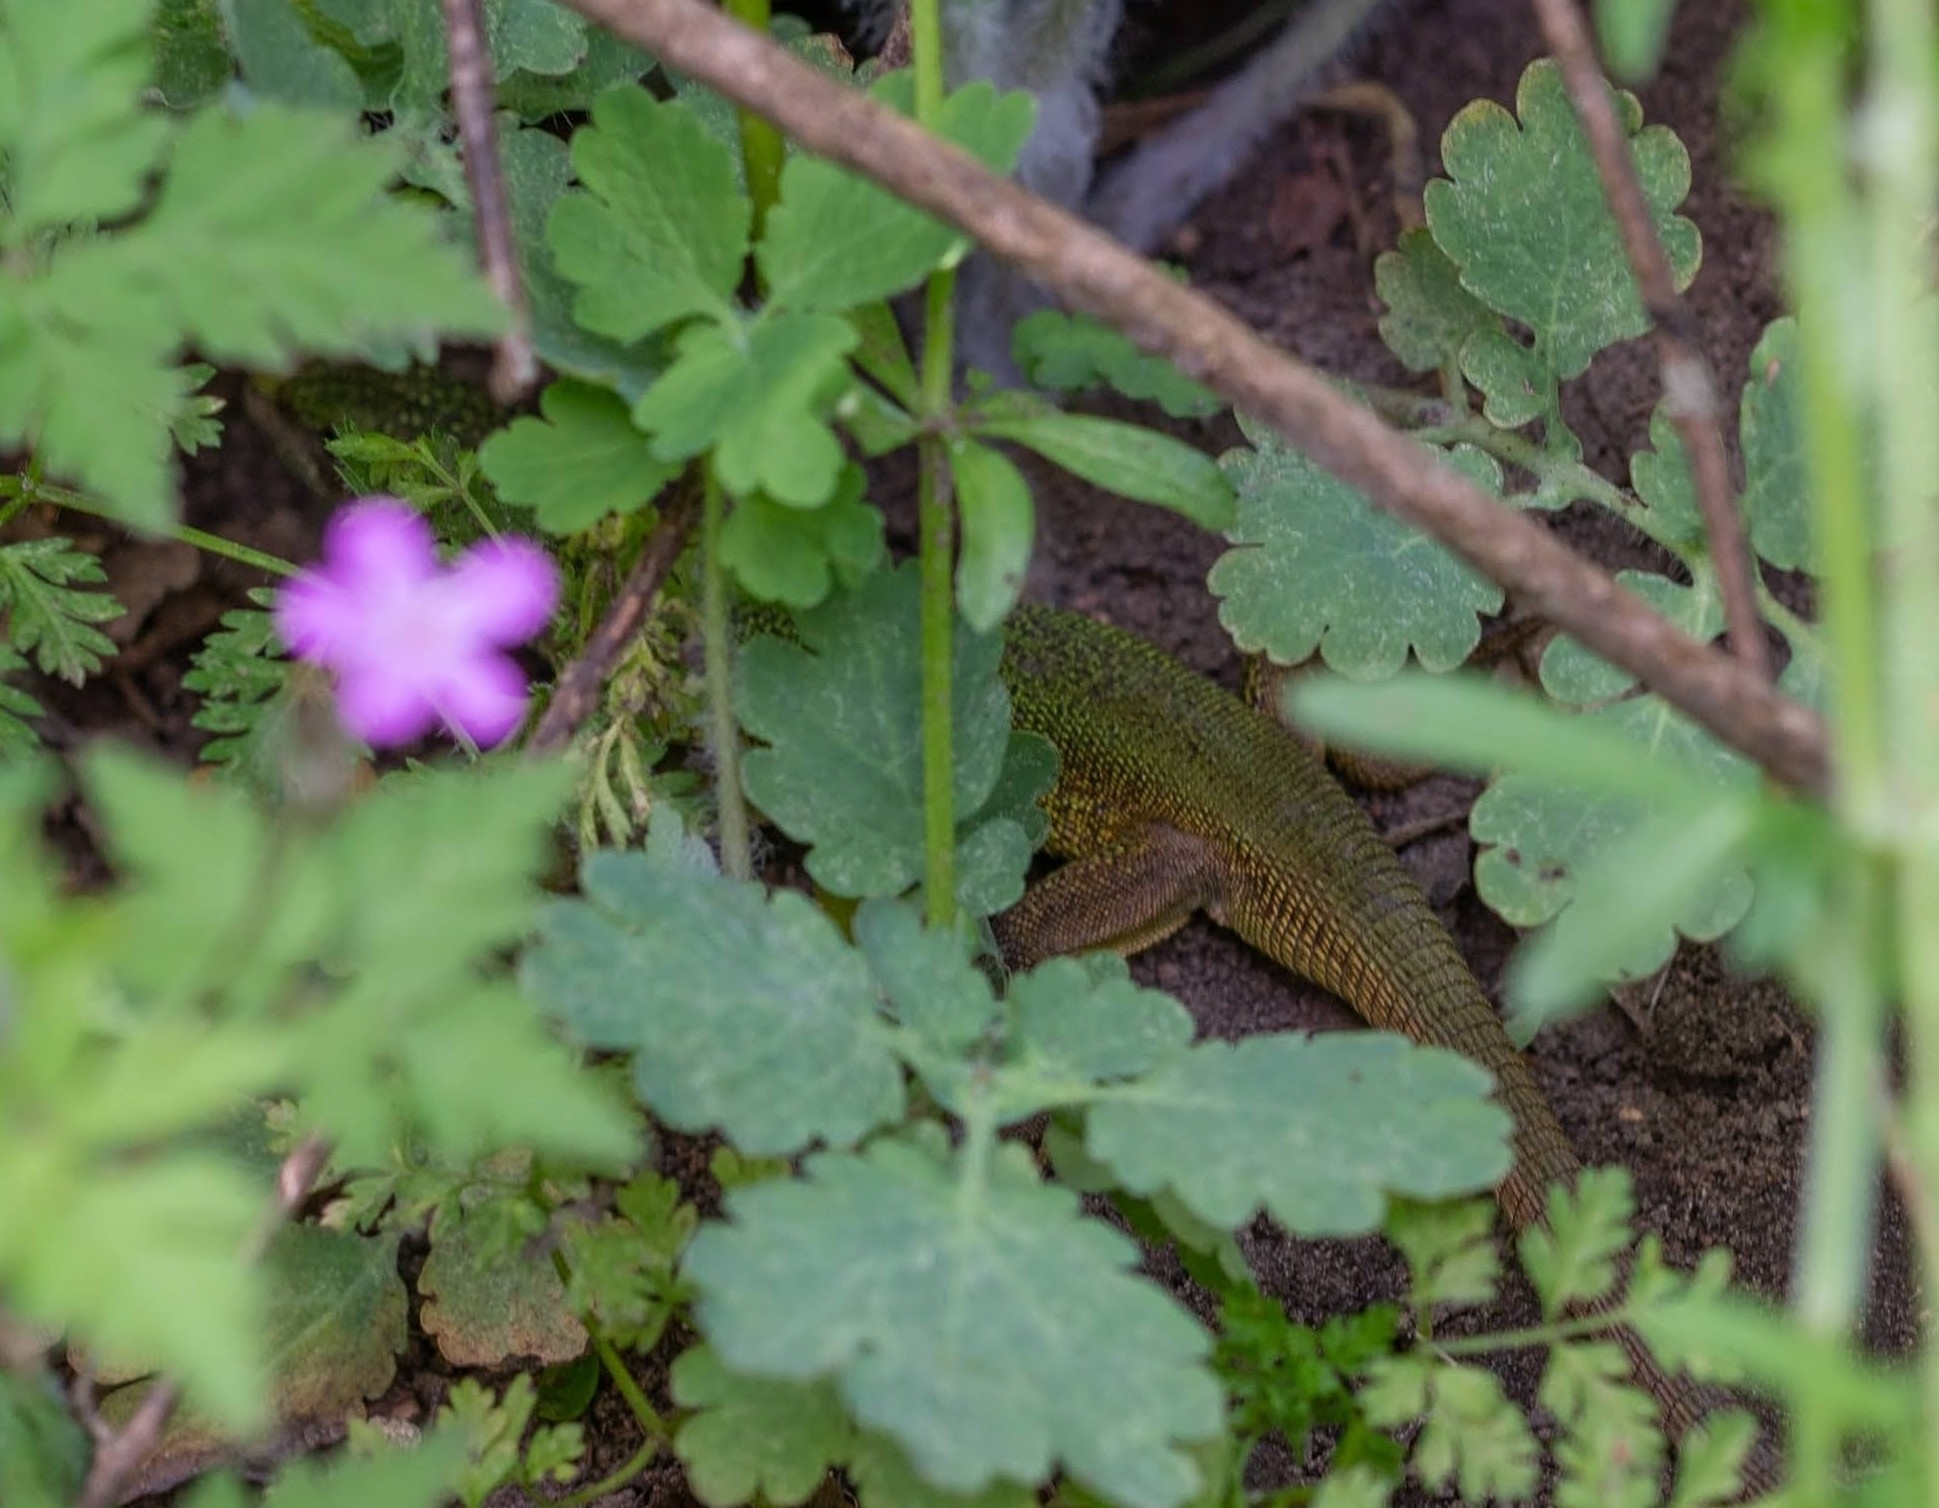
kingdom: Animalia
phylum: Chordata
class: Squamata
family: Lacertidae
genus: Lacerta
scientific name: Lacerta viridis
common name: European green lizard
